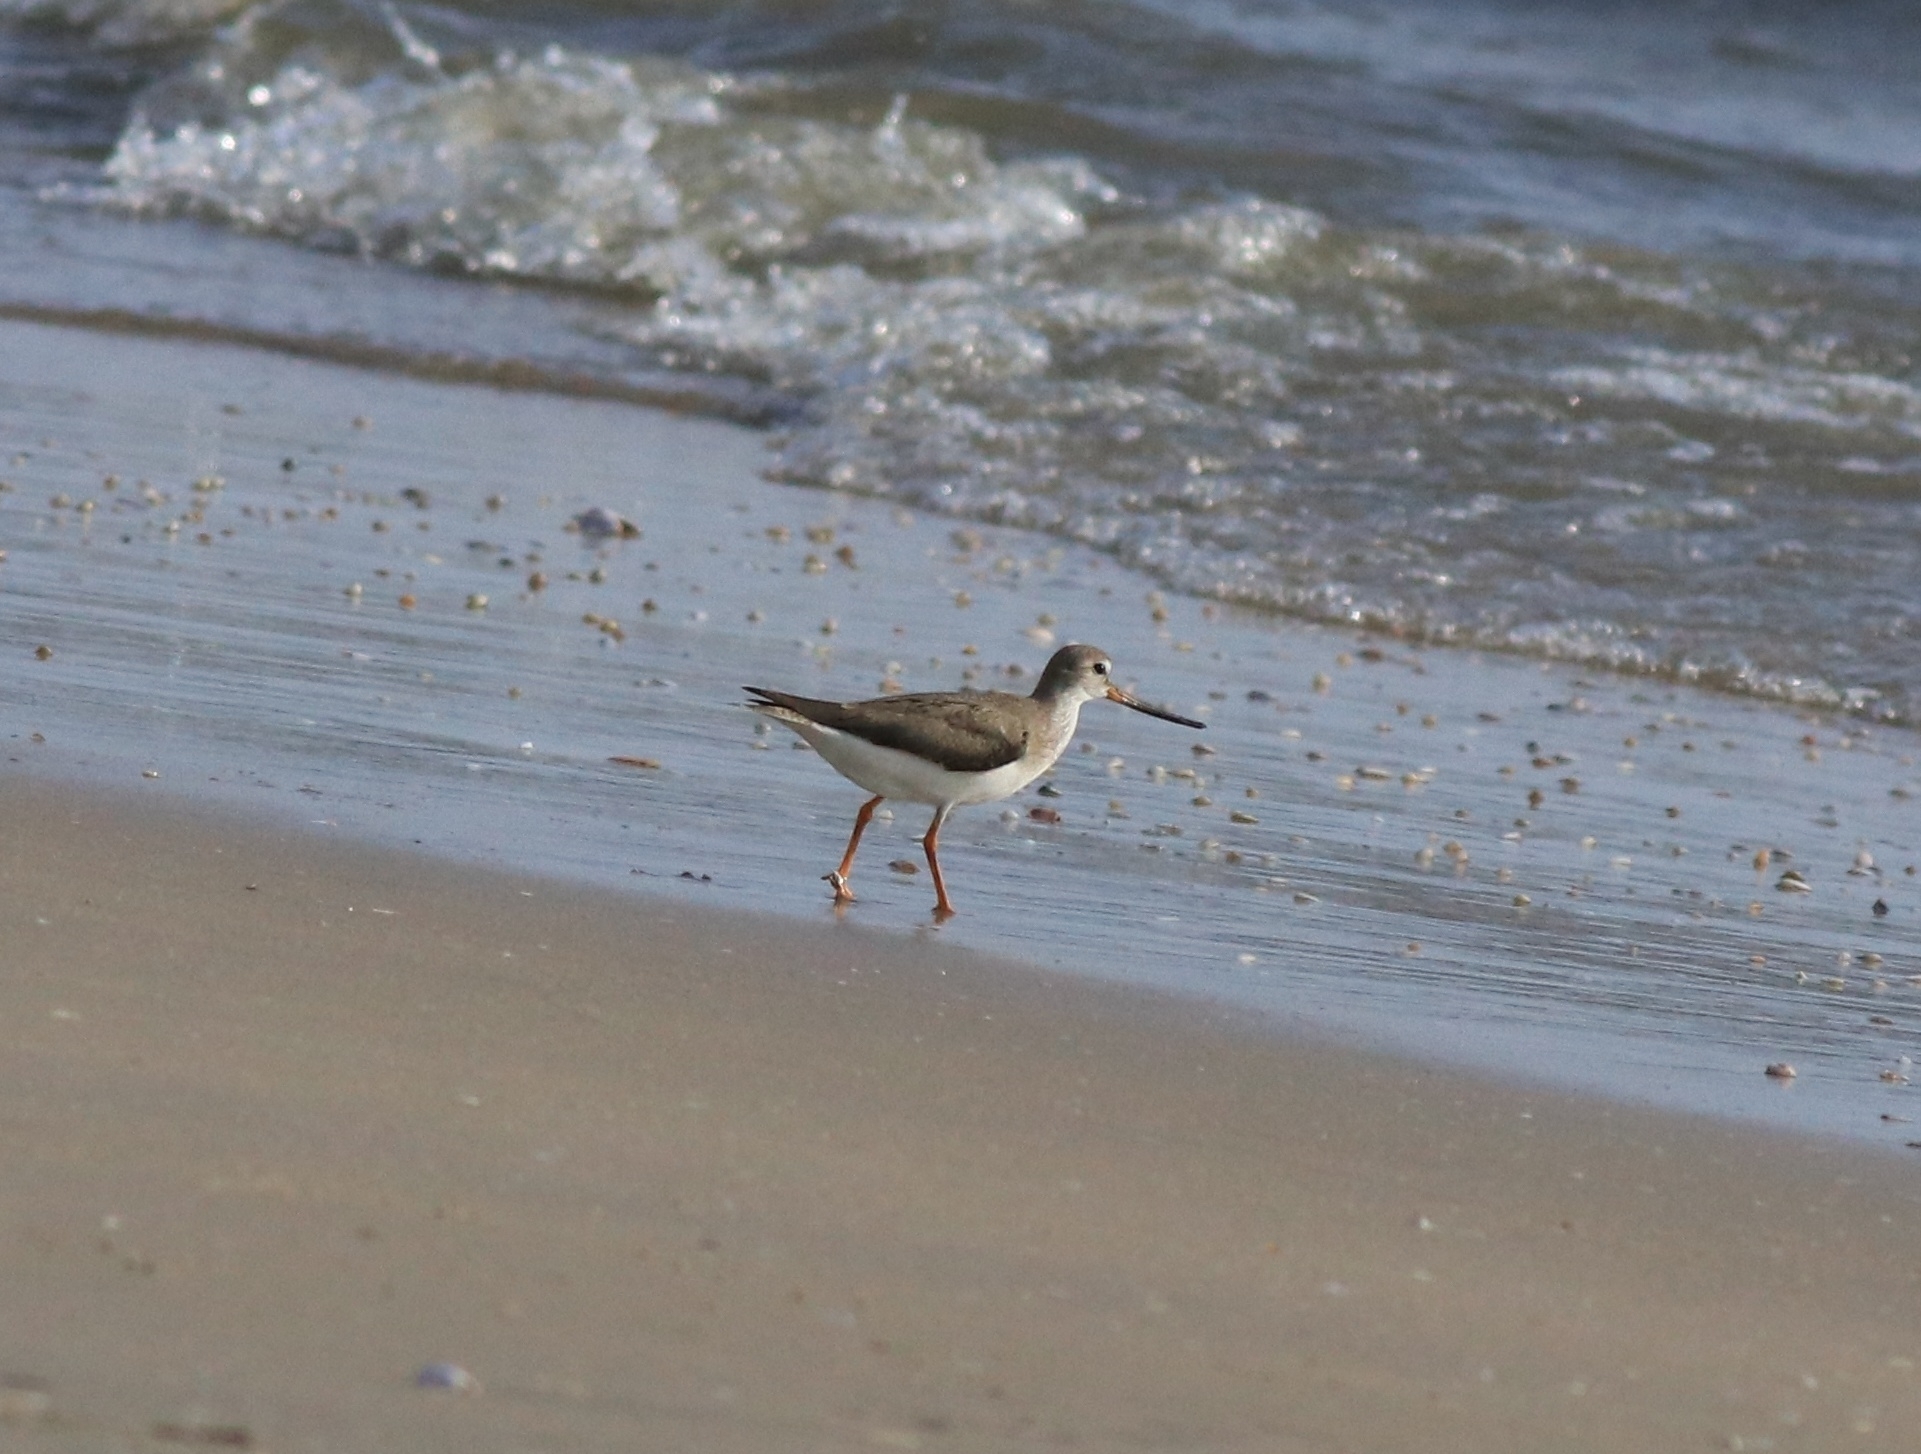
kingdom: Animalia
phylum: Chordata
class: Aves
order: Charadriiformes
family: Scolopacidae
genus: Xenus
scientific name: Xenus cinereus
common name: Terek sandpiper
